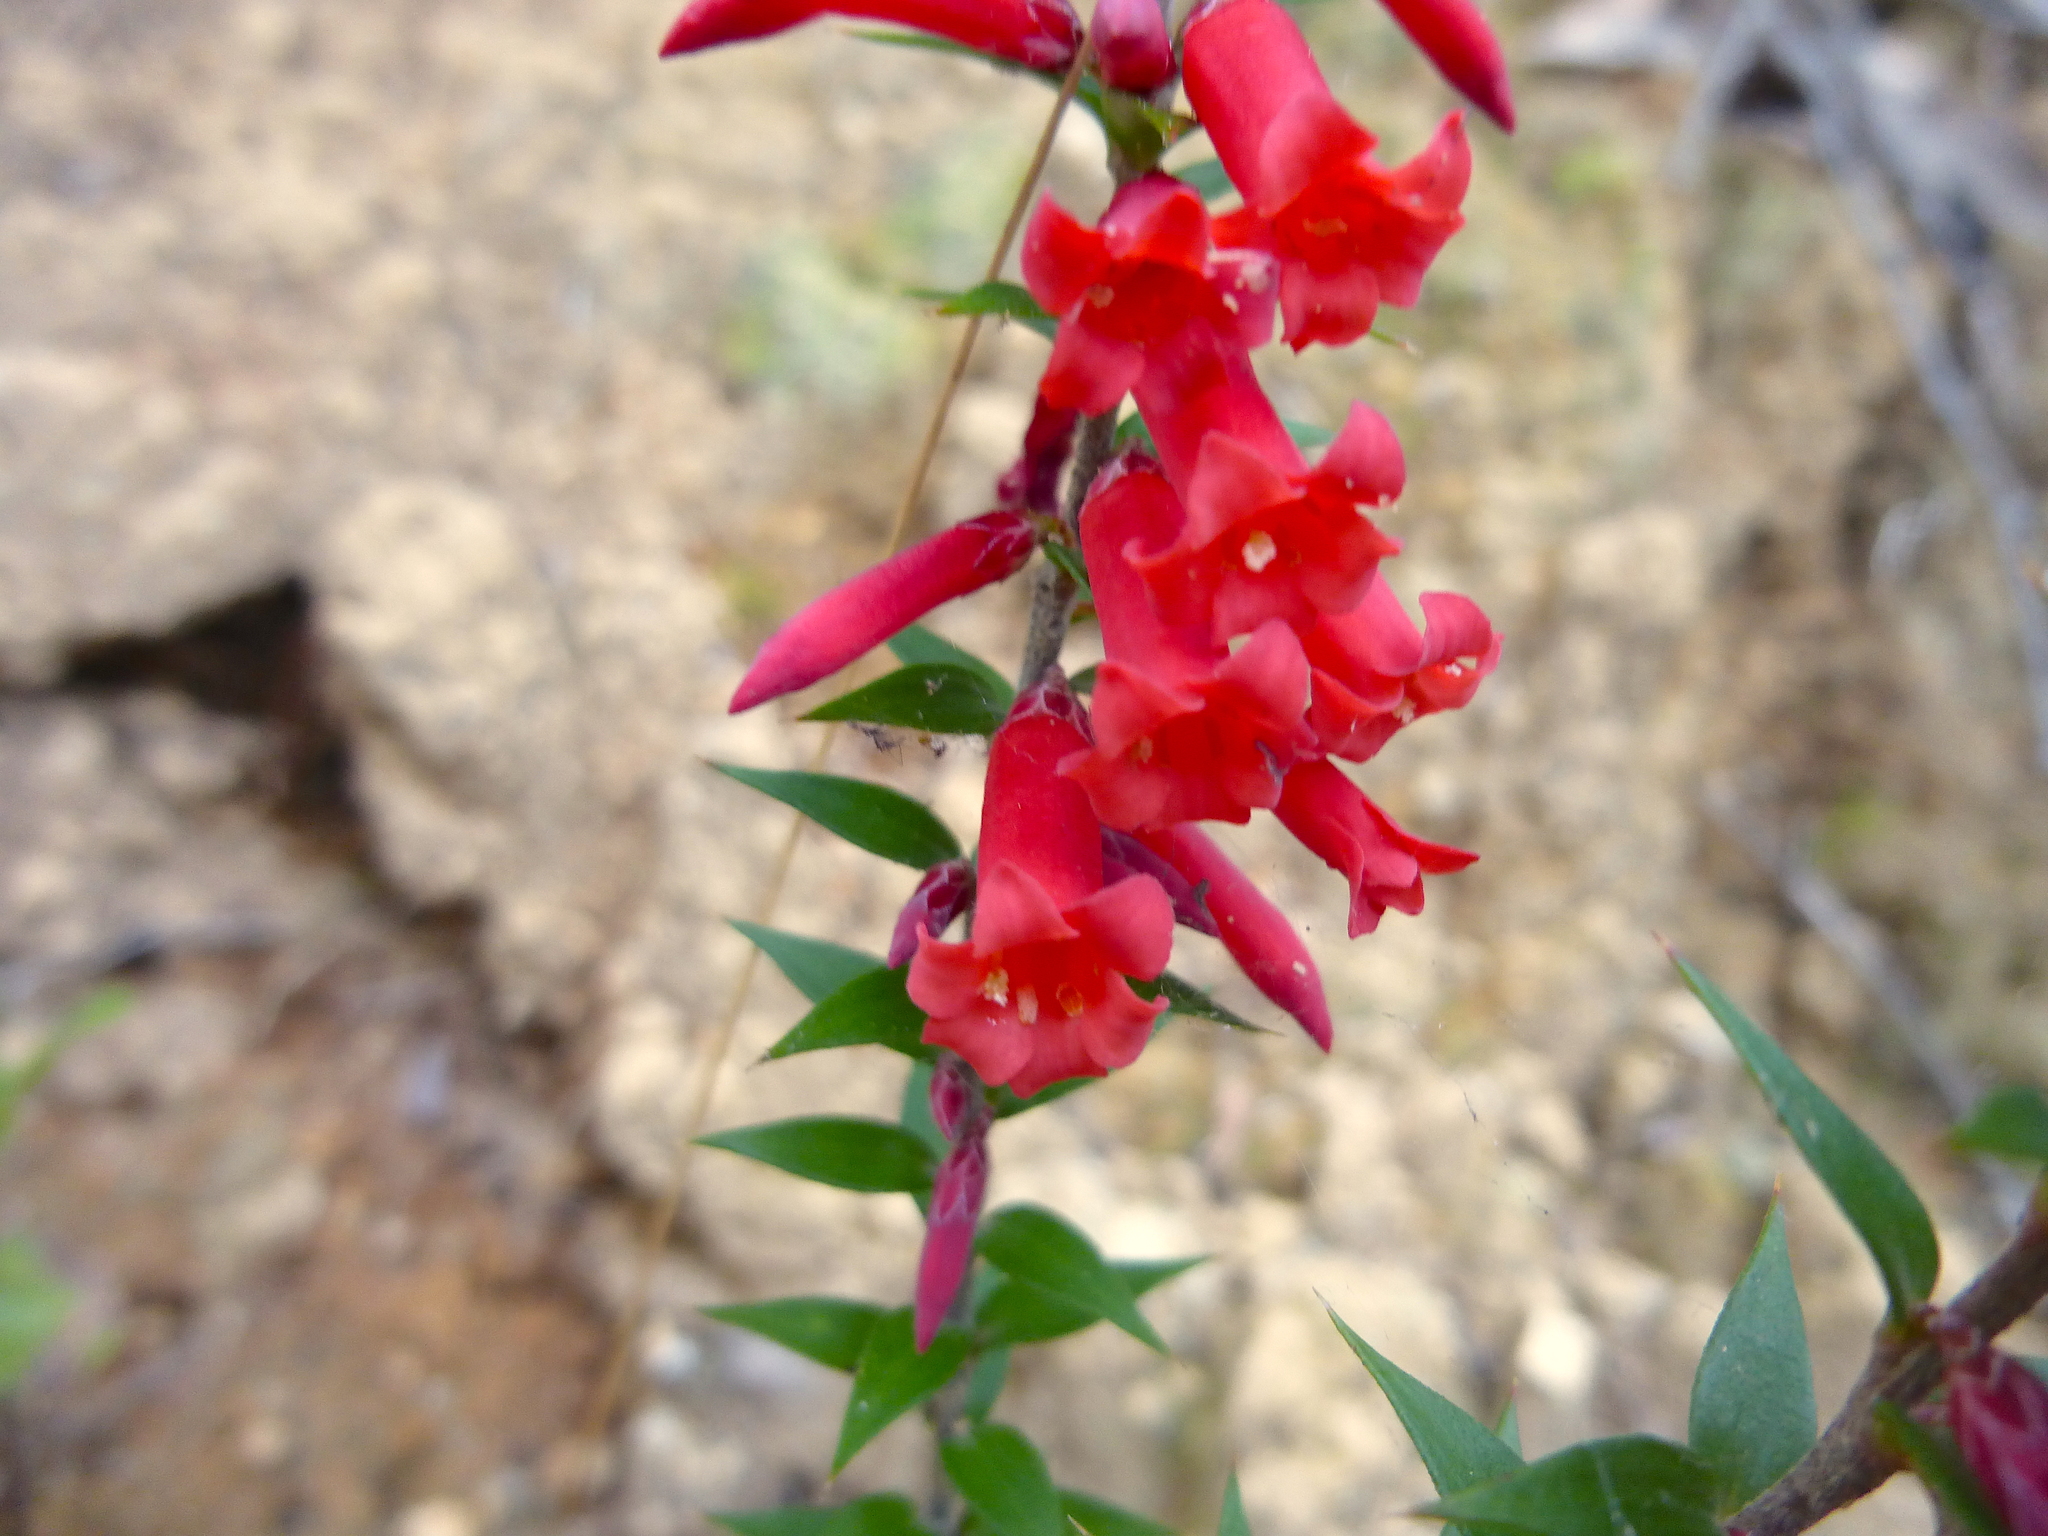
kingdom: Plantae
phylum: Tracheophyta
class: Magnoliopsida
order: Ericales
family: Ericaceae
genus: Epacris
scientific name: Epacris impressa
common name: Common-heath
